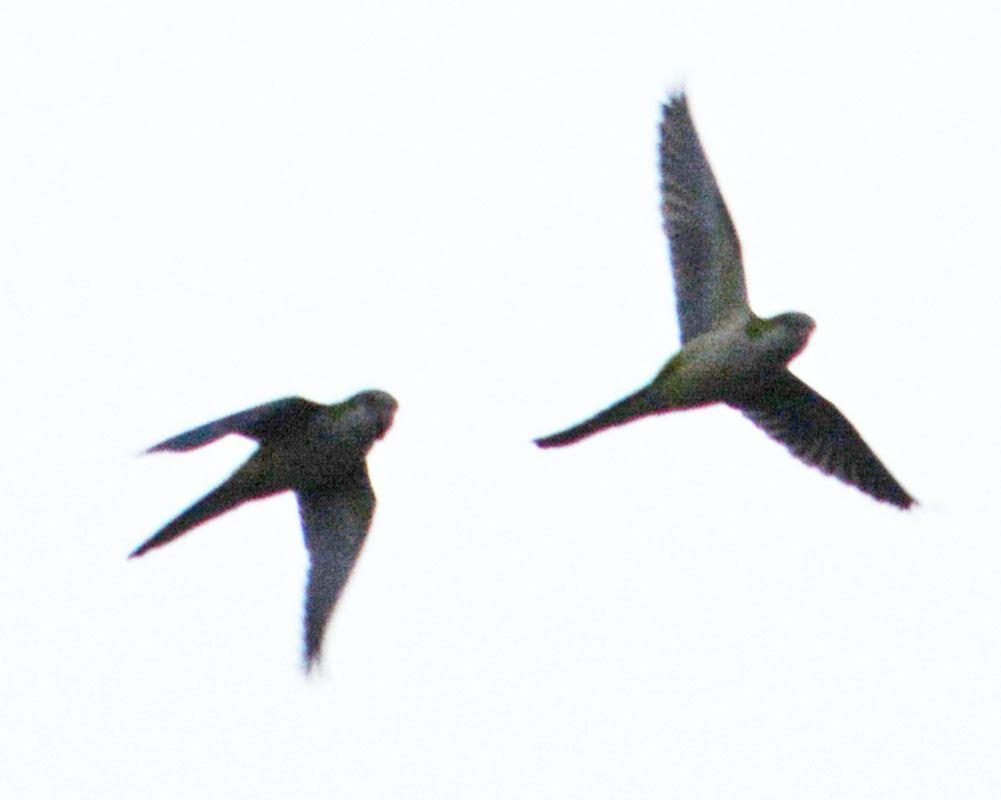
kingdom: Animalia
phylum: Chordata
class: Aves
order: Psittaciformes
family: Psittacidae
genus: Myiopsitta
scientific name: Myiopsitta monachus
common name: Monk parakeet
